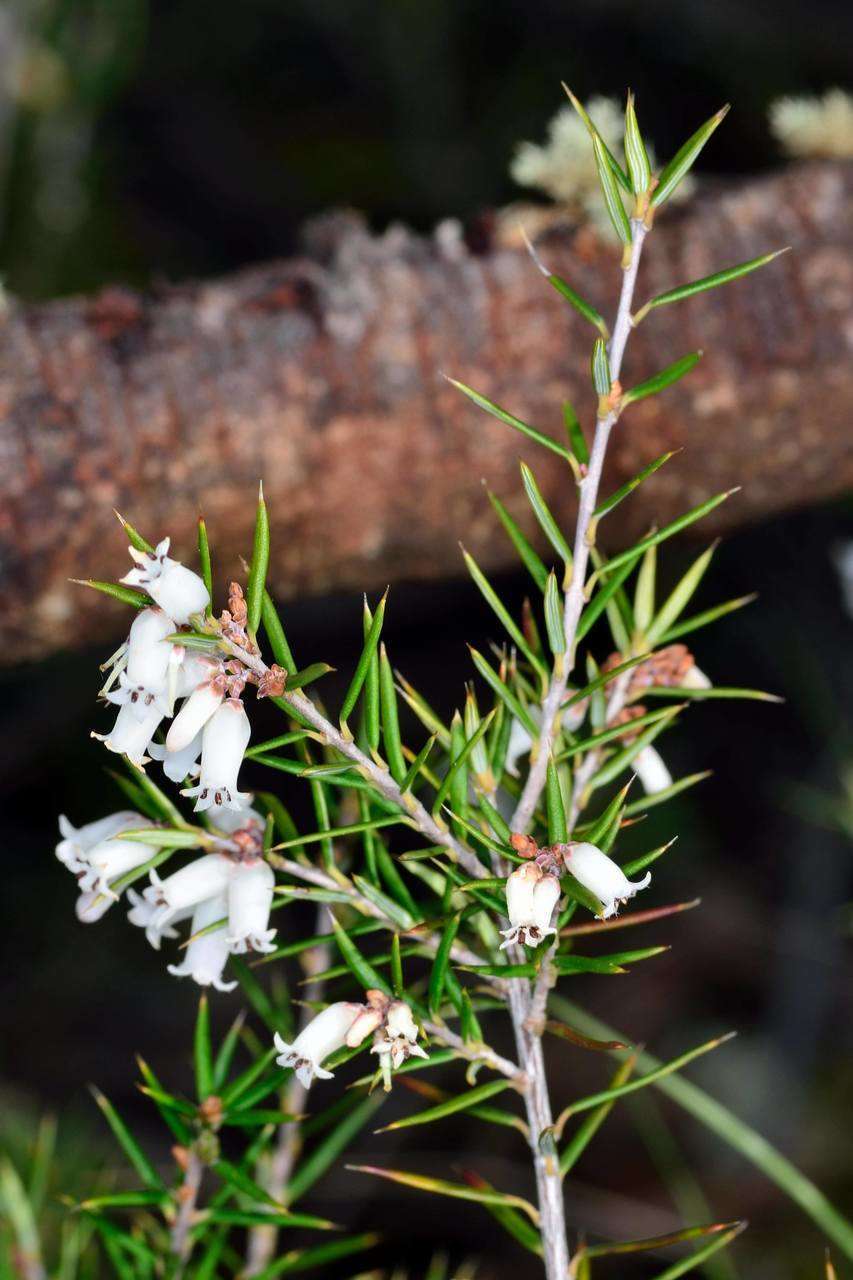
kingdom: Plantae
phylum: Tracheophyta
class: Magnoliopsida
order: Ericales
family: Ericaceae
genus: Lissanthe
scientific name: Lissanthe strigosa
